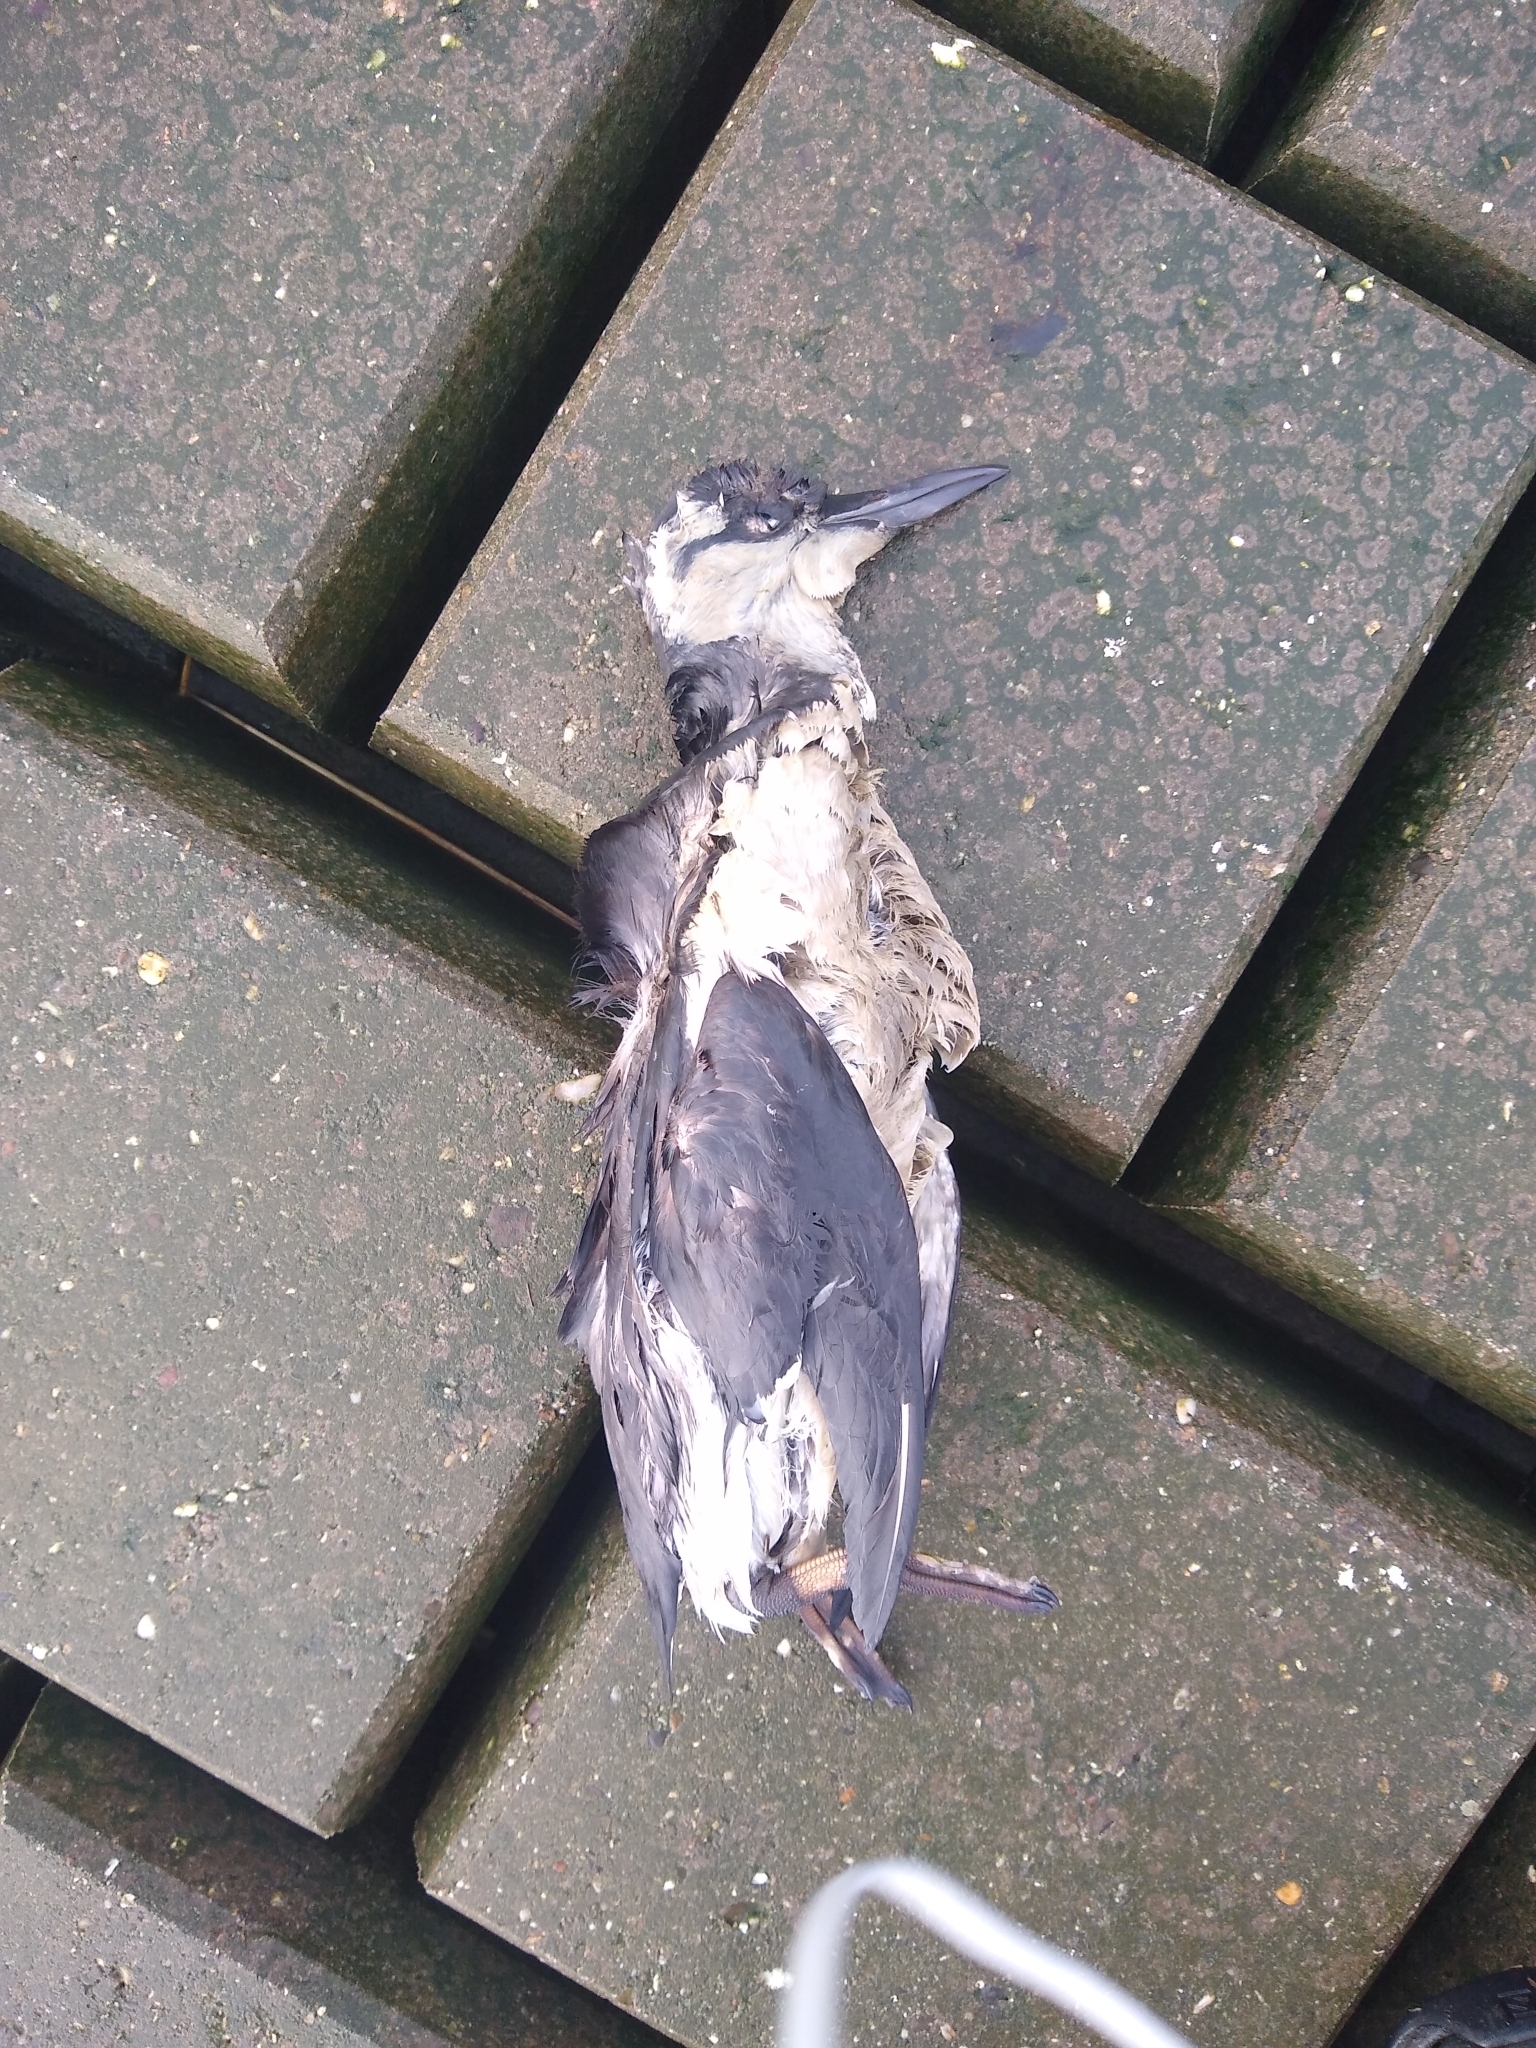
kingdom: Animalia
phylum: Chordata
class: Aves
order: Charadriiformes
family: Alcidae
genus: Uria
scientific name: Uria aalge
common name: Common murre
